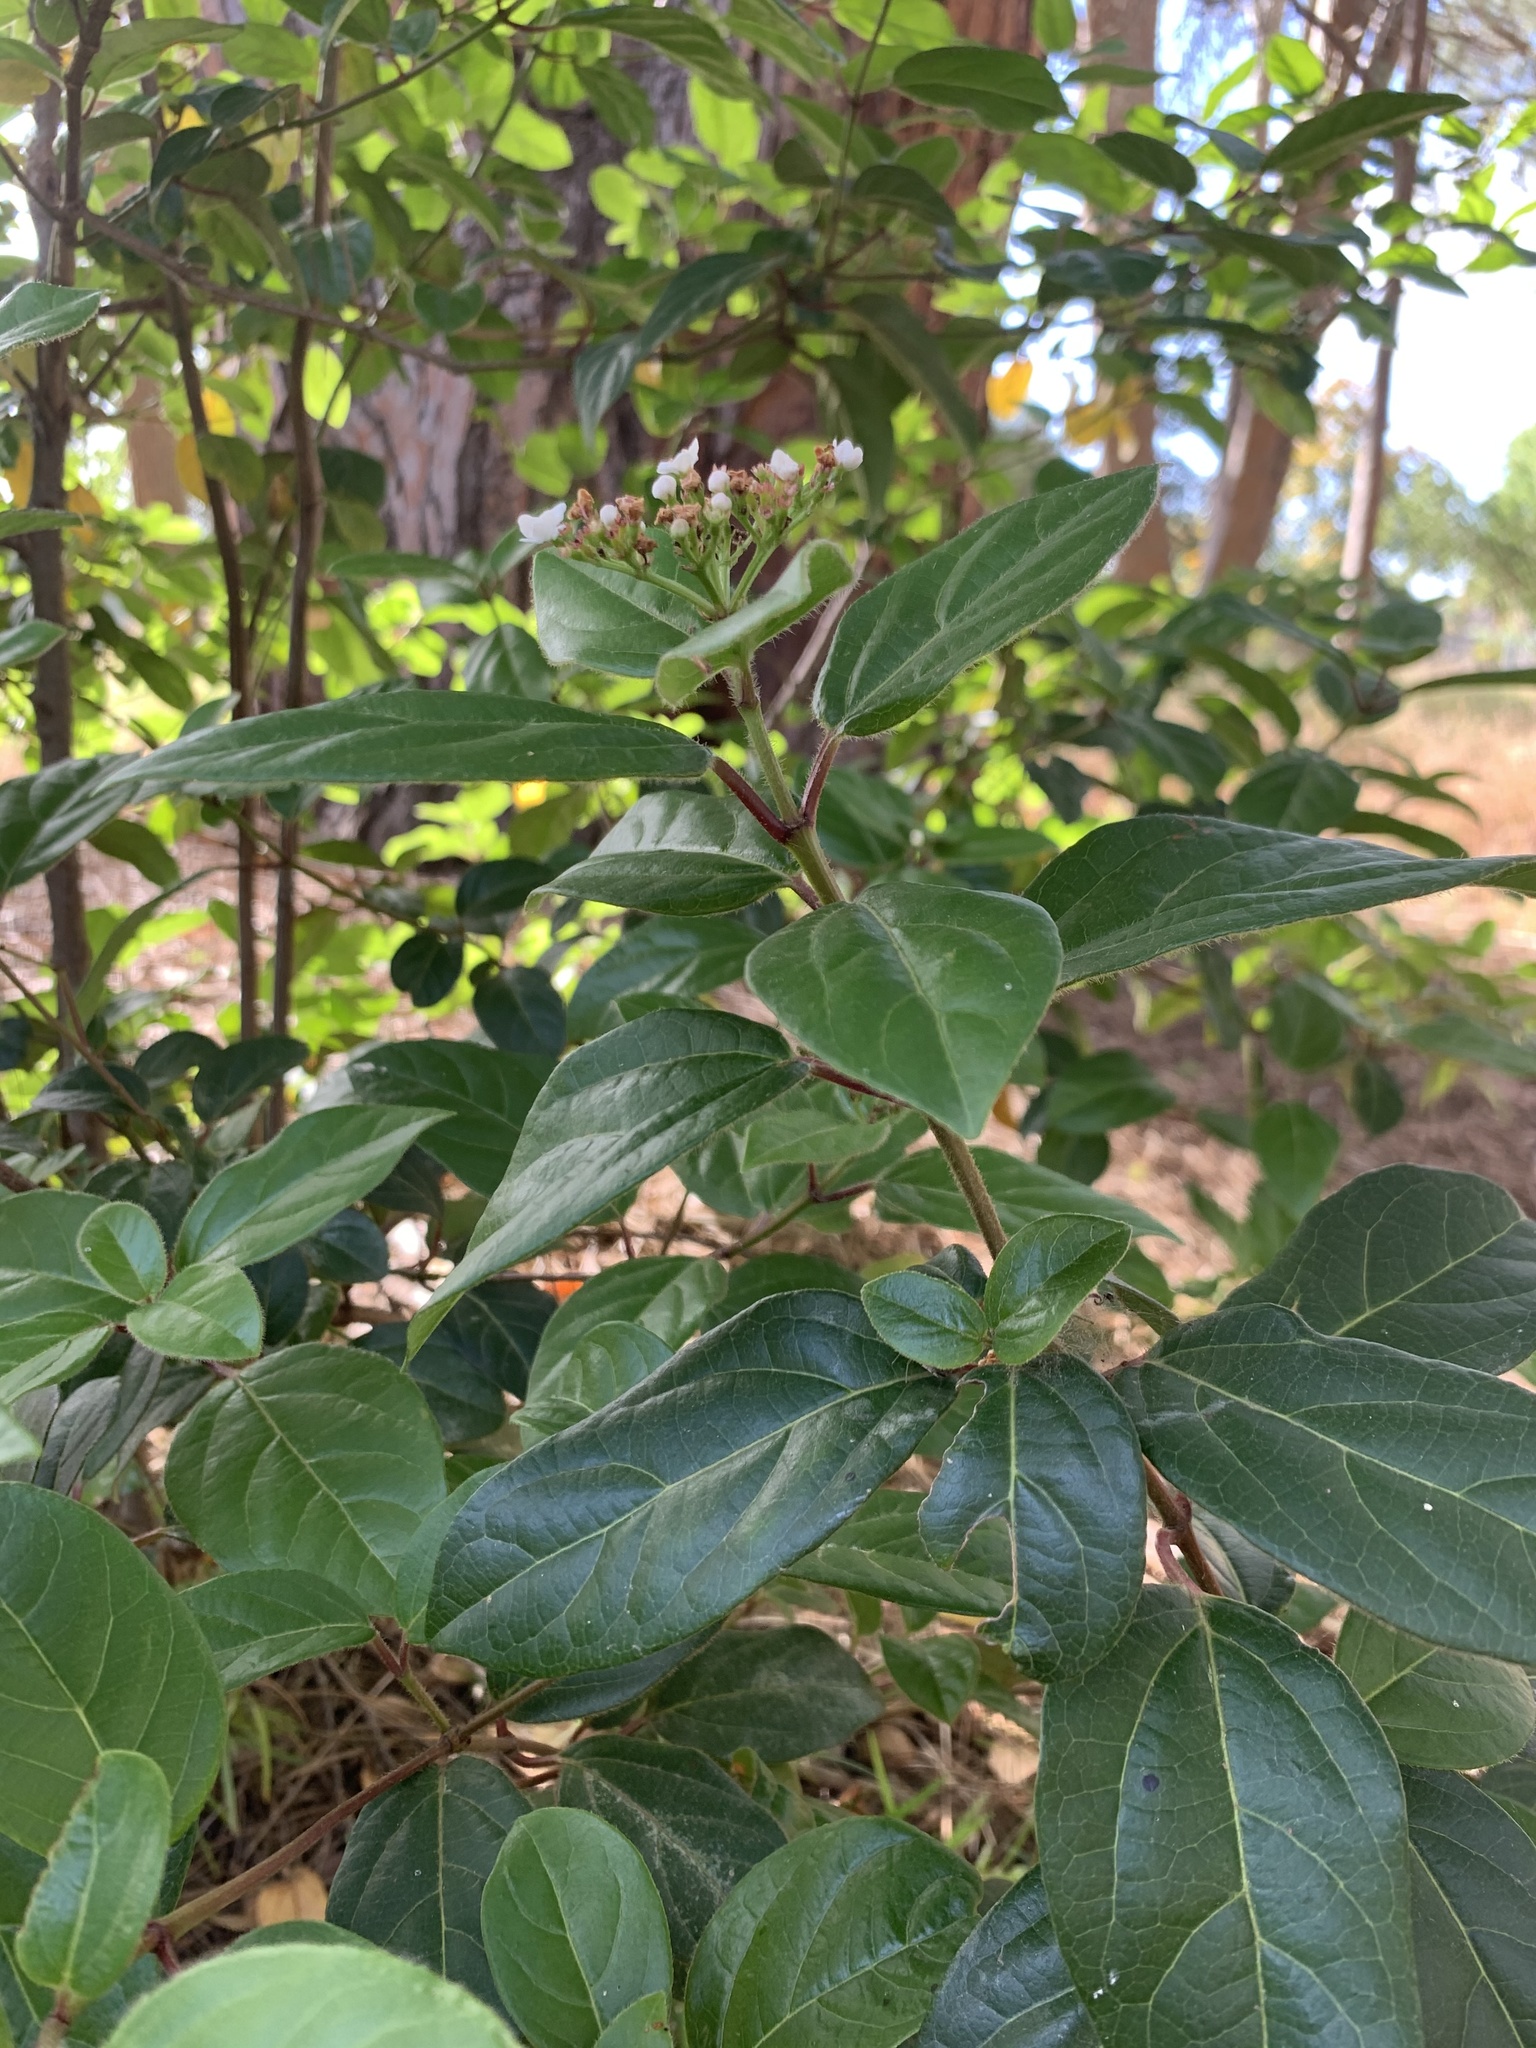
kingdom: Plantae
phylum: Tracheophyta
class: Magnoliopsida
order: Dipsacales
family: Viburnaceae
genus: Viburnum
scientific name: Viburnum tinus
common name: Laurustinus
